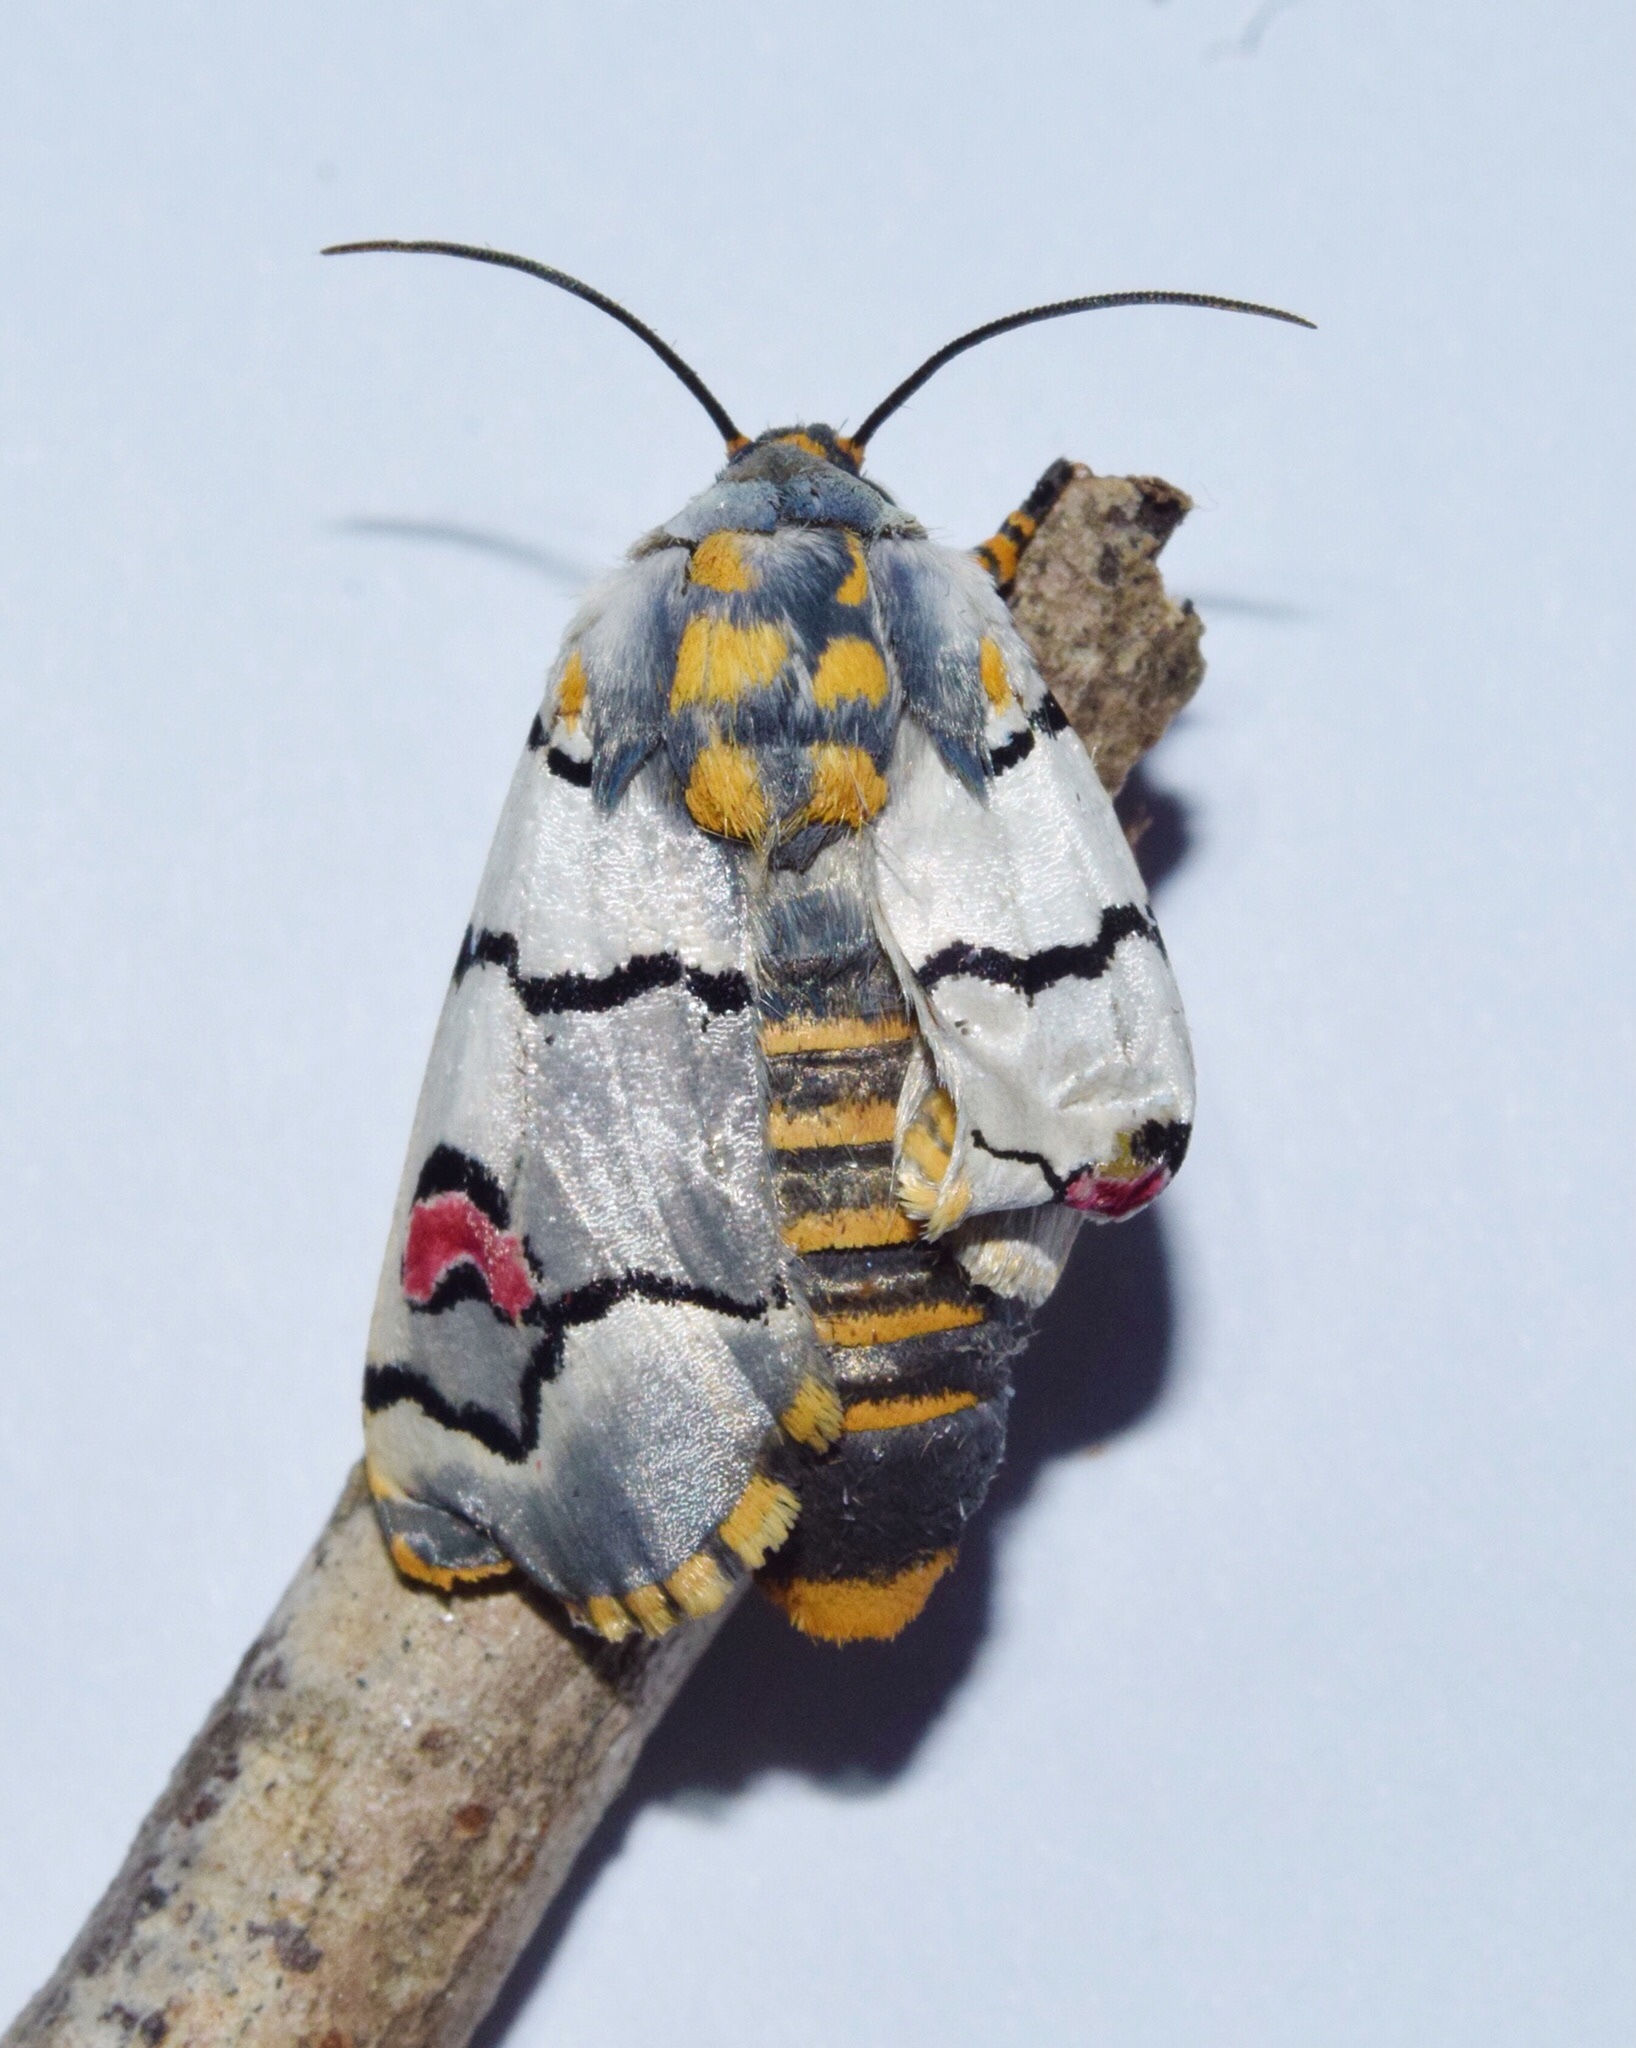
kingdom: Animalia
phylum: Arthropoda
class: Insecta
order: Lepidoptera
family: Noctuidae
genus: Diaphone
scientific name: Diaphone eumela
